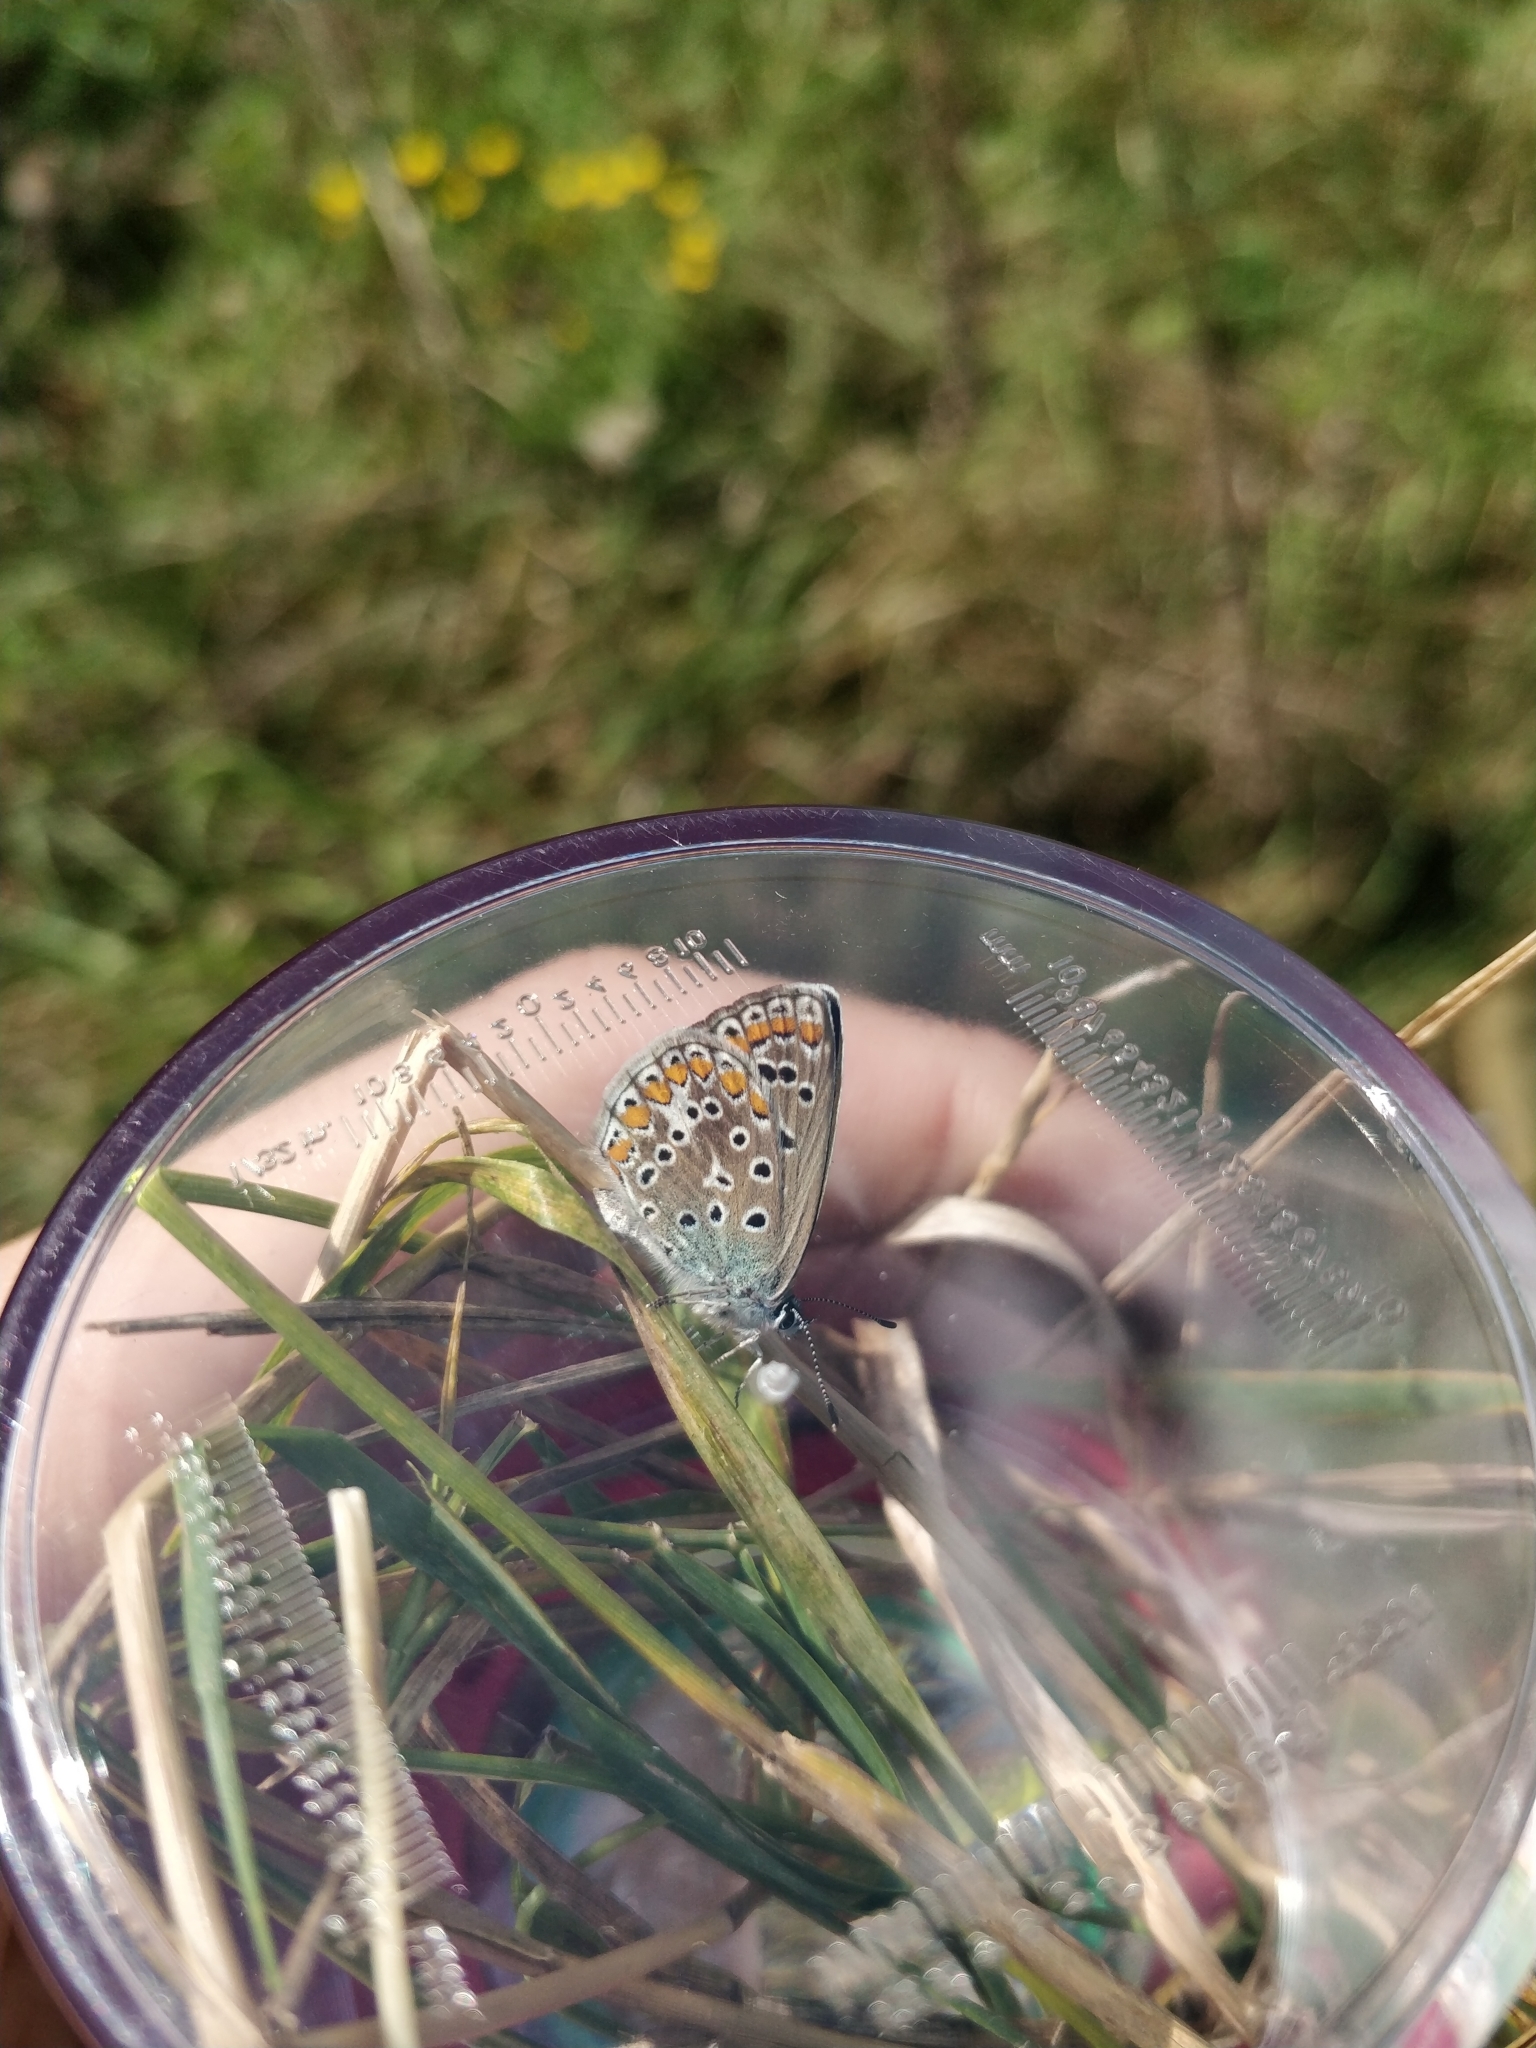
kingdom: Animalia
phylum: Arthropoda
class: Insecta
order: Lepidoptera
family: Lycaenidae
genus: Polyommatus
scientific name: Polyommatus icarus
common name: Common blue
